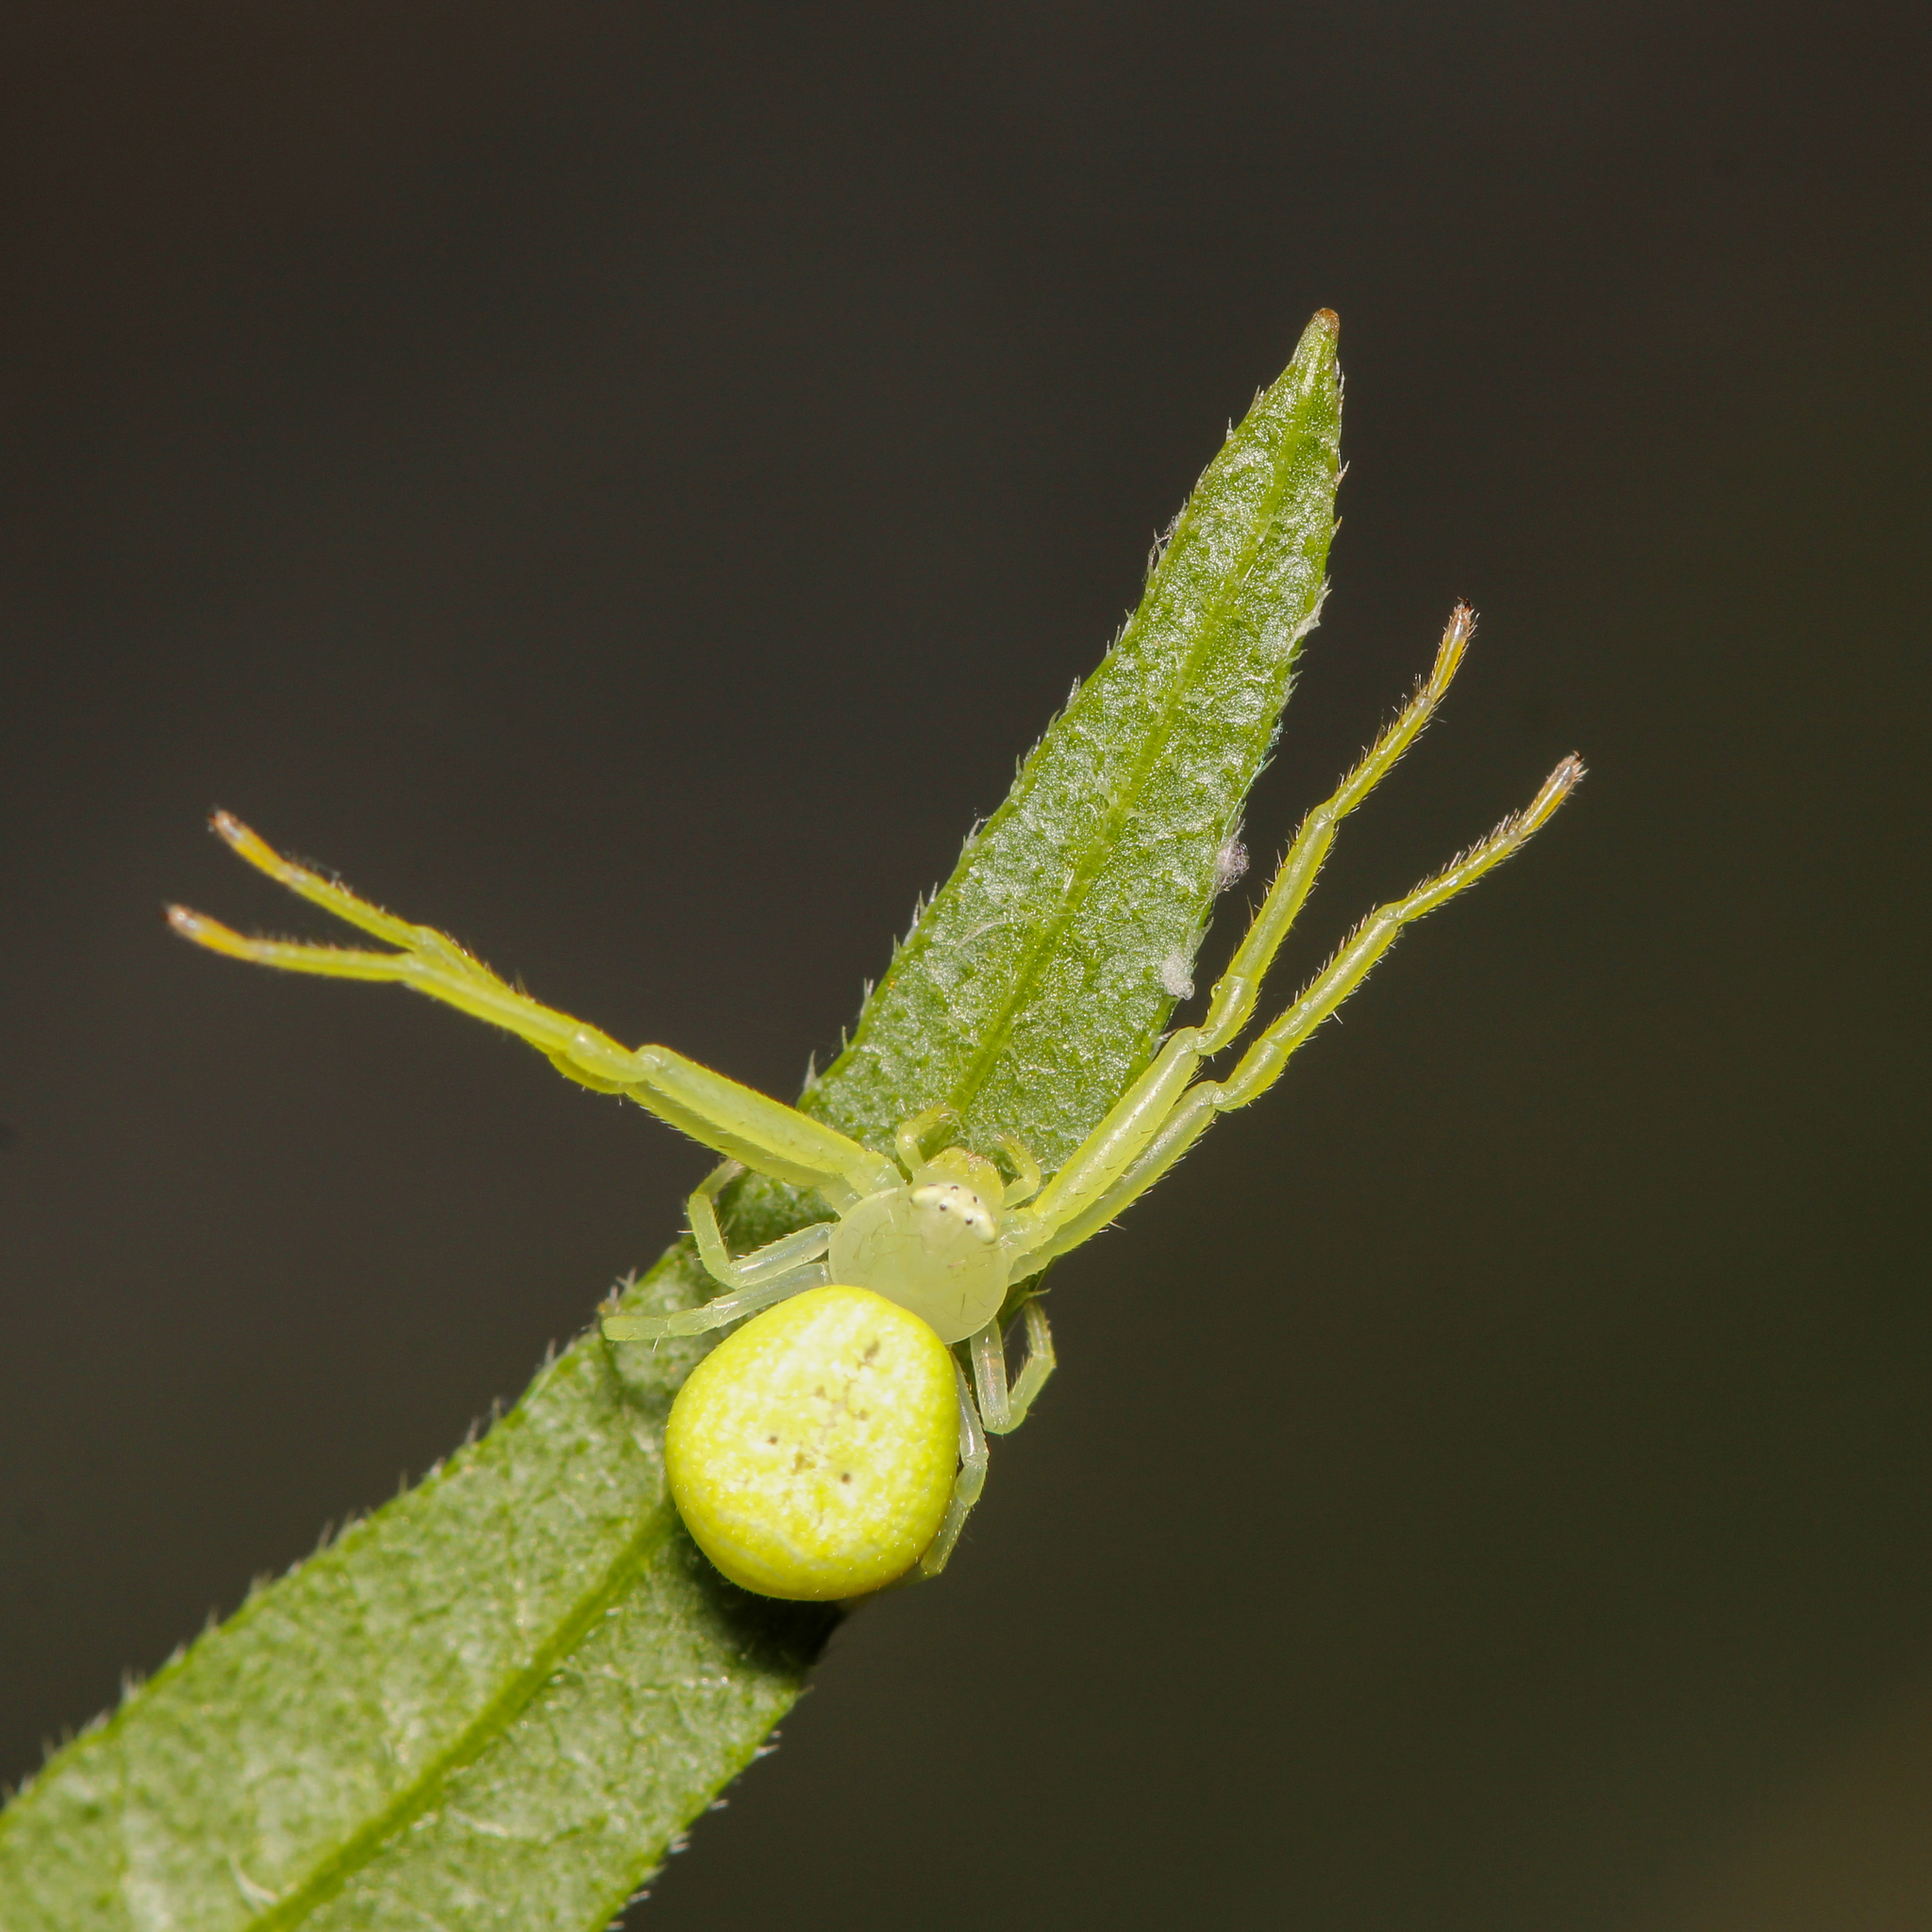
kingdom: Animalia
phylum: Arthropoda
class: Arachnida
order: Araneae
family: Thomisidae
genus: Misumessus
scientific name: Misumessus oblongus
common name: American green crab spider
